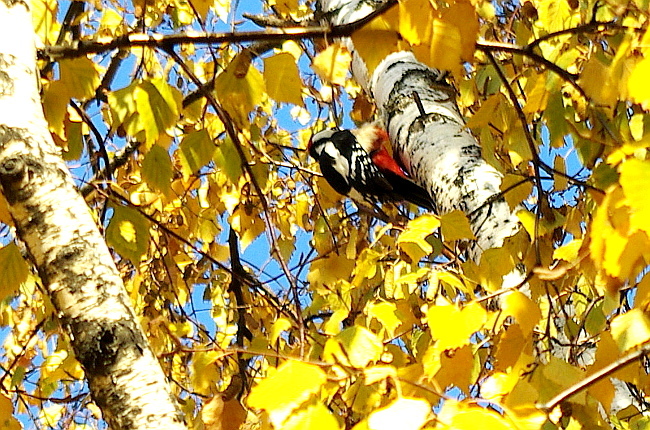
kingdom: Animalia
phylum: Chordata
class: Aves
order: Piciformes
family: Picidae
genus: Dendrocopos
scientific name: Dendrocopos major
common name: Great spotted woodpecker
